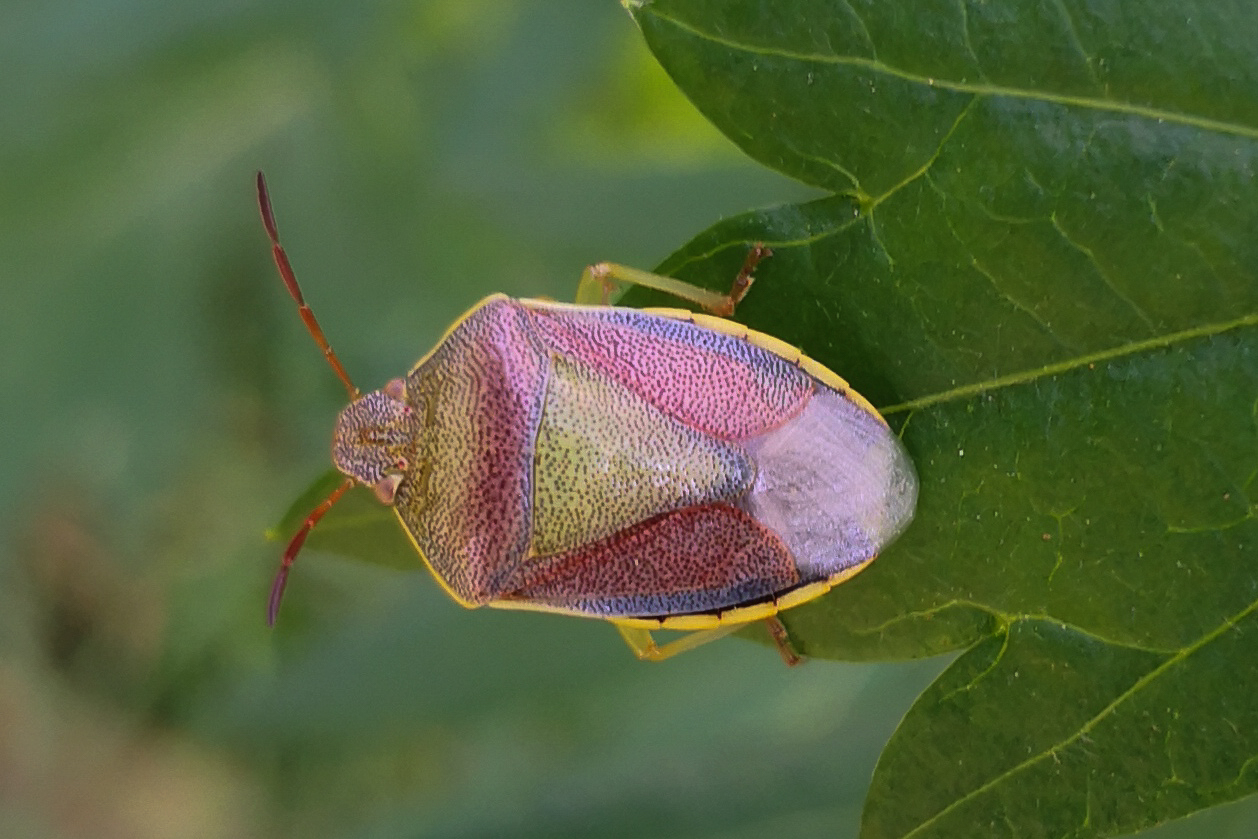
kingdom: Animalia
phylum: Arthropoda
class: Insecta
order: Hemiptera
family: Pentatomidae
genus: Piezodorus
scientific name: Piezodorus lituratus
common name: Stink bug
